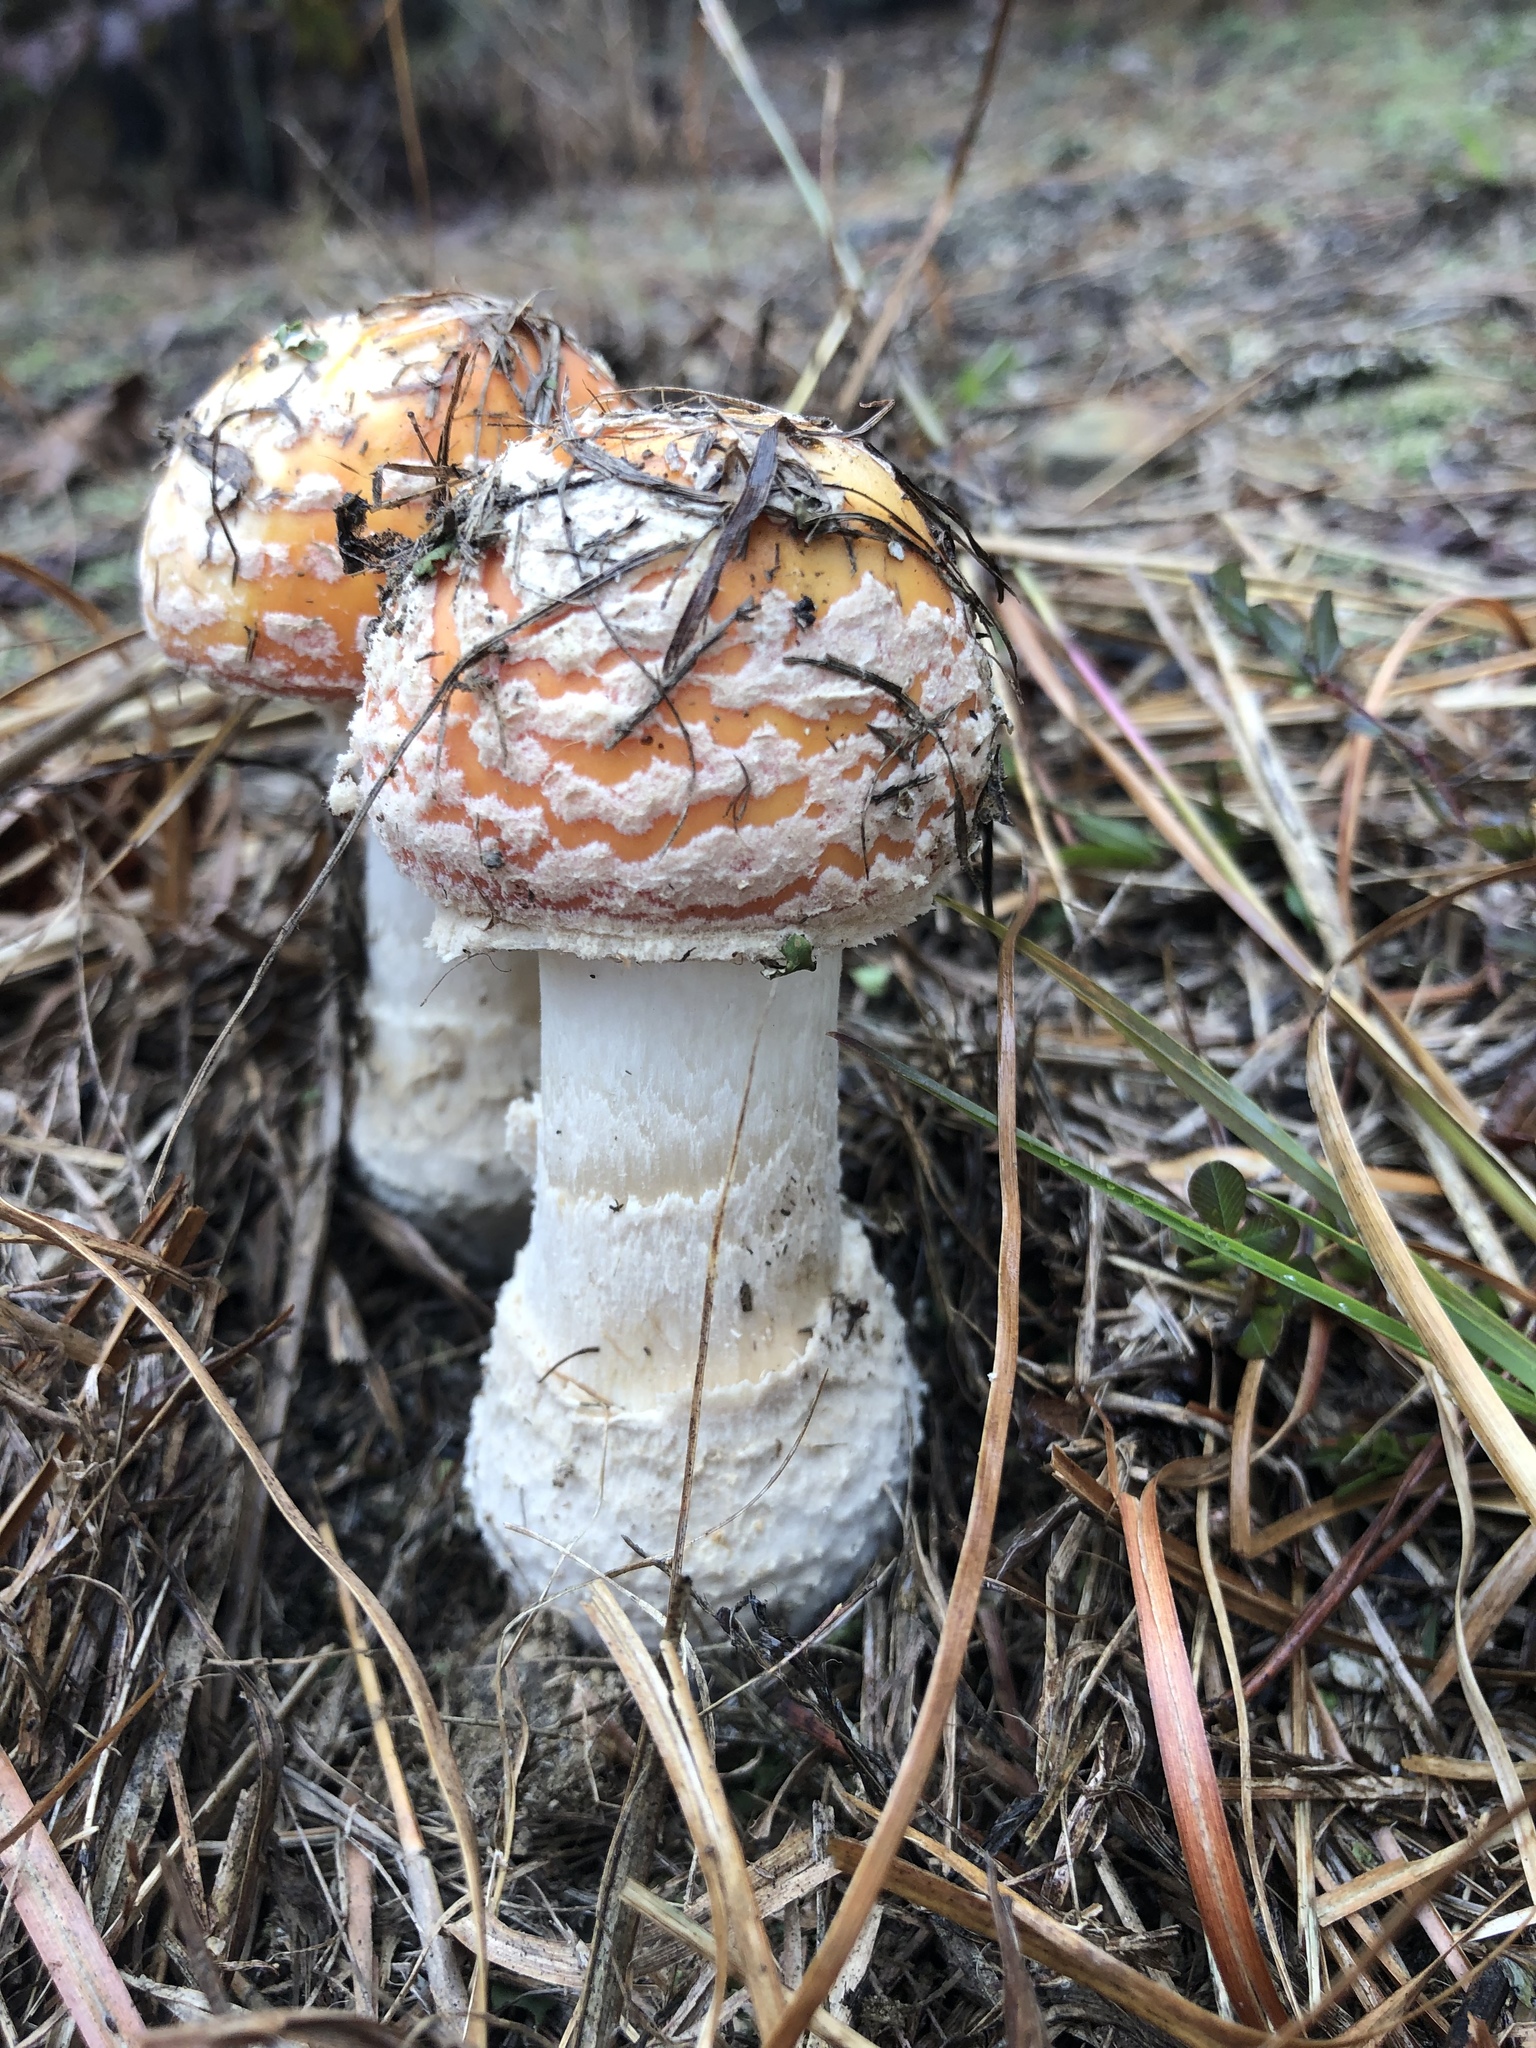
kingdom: Fungi
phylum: Basidiomycota
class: Agaricomycetes
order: Agaricales
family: Amanitaceae
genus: Amanita
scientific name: Amanita persicina
